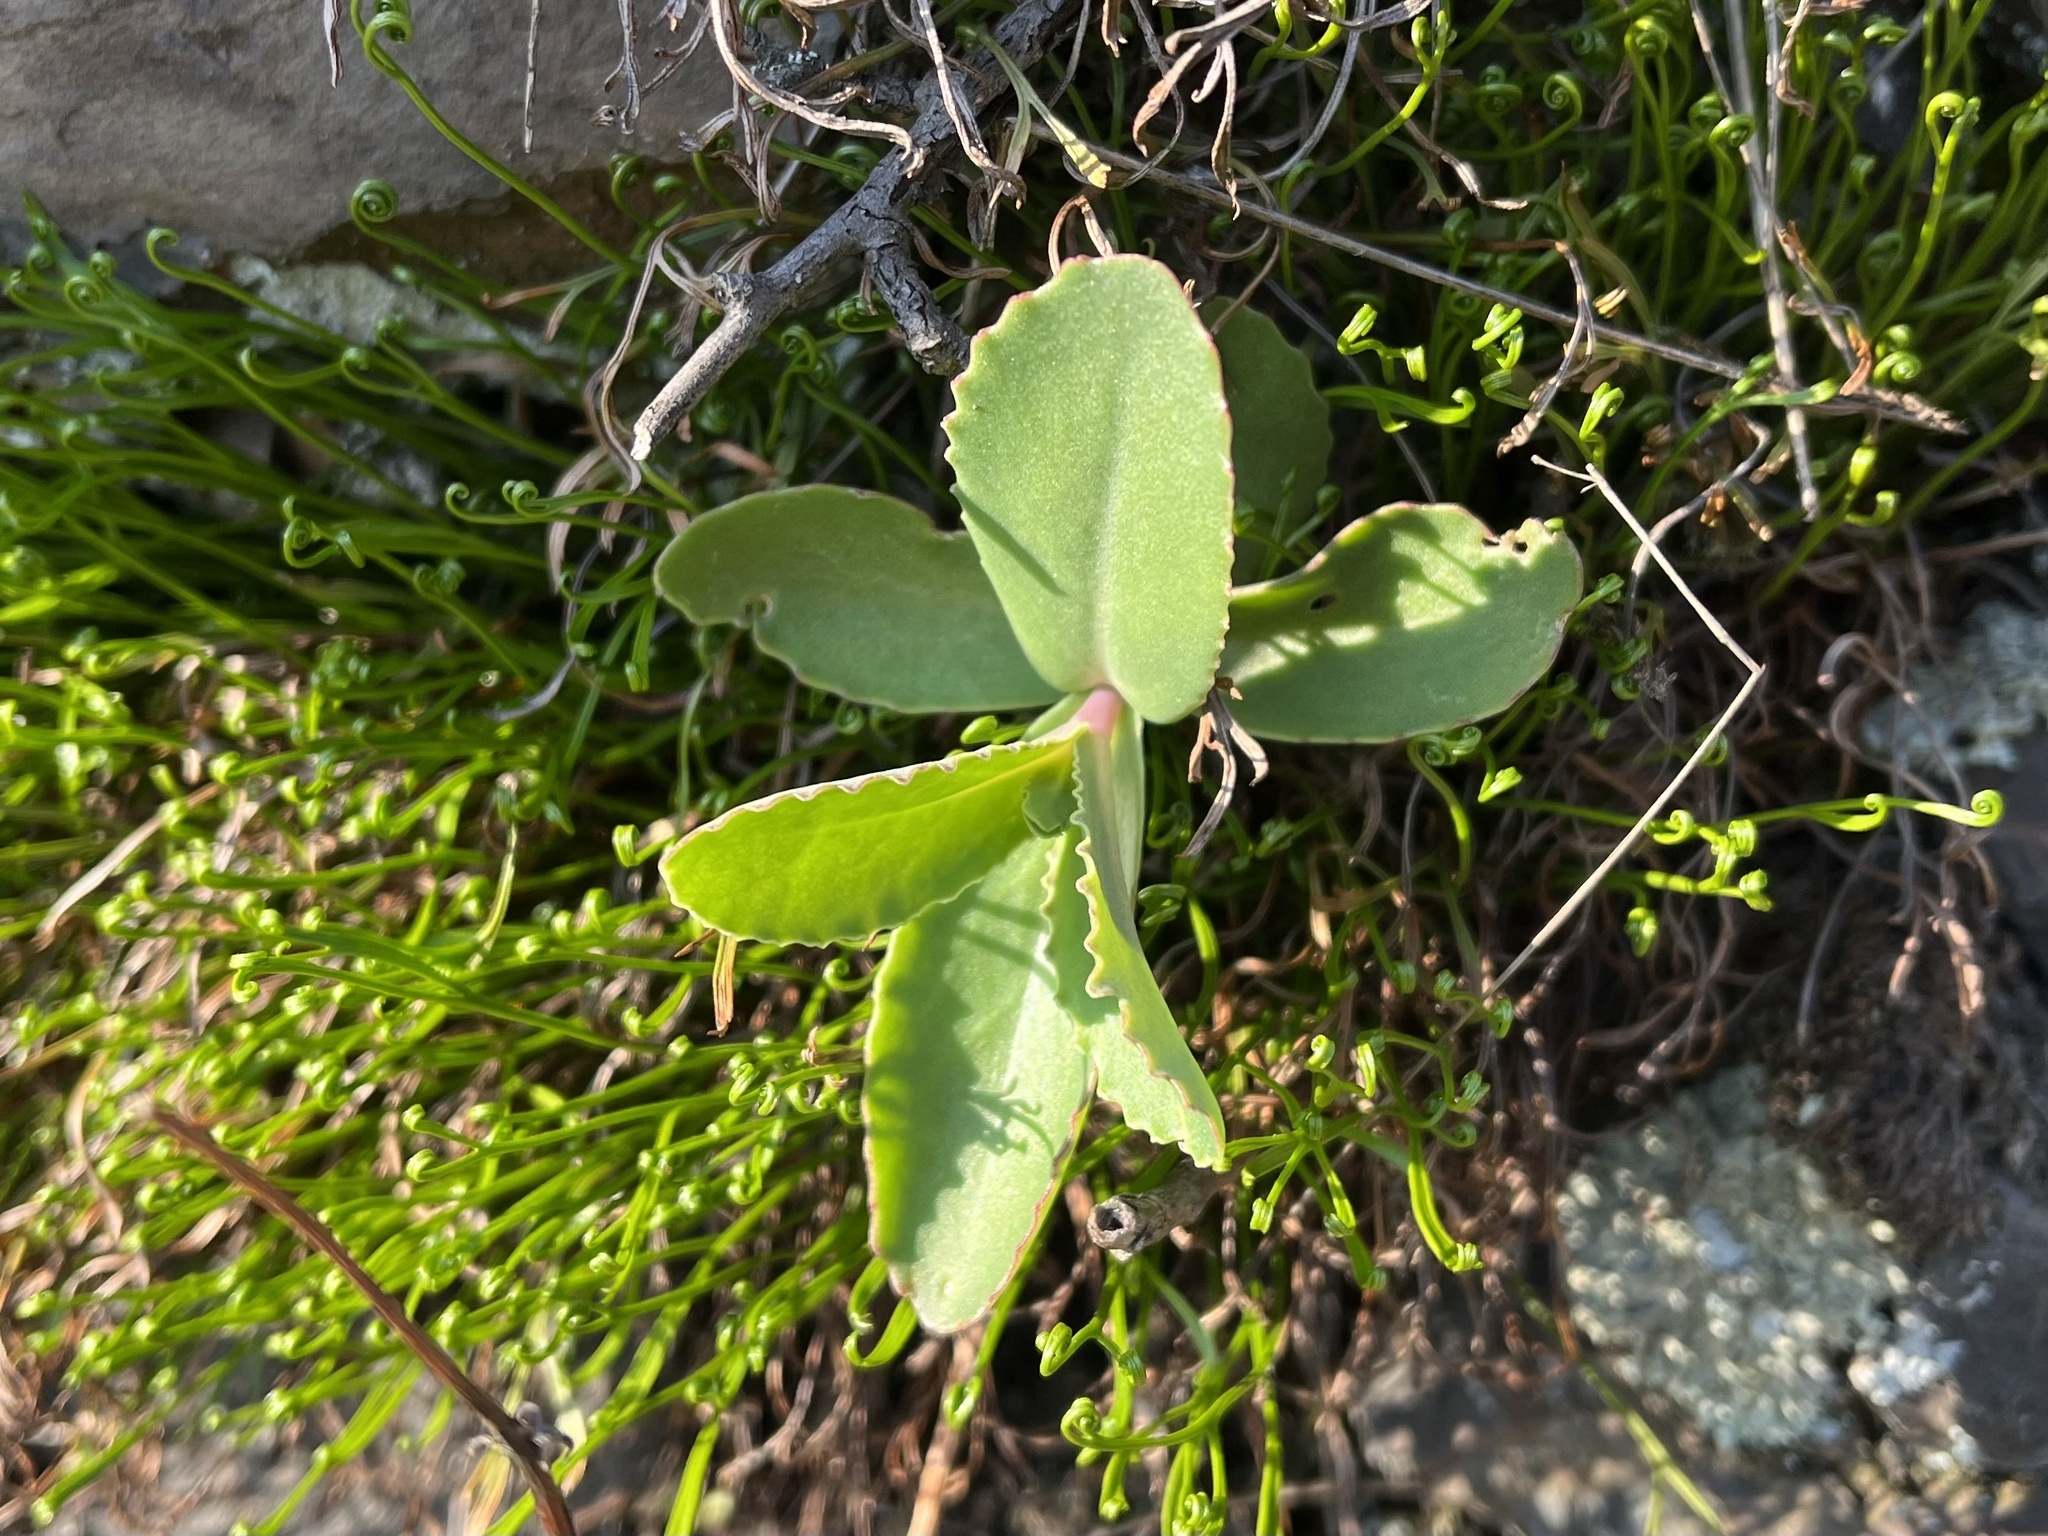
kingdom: Plantae
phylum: Tracheophyta
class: Magnoliopsida
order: Saxifragales
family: Crassulaceae
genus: Hylotelephium
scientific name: Hylotelephium maximum
